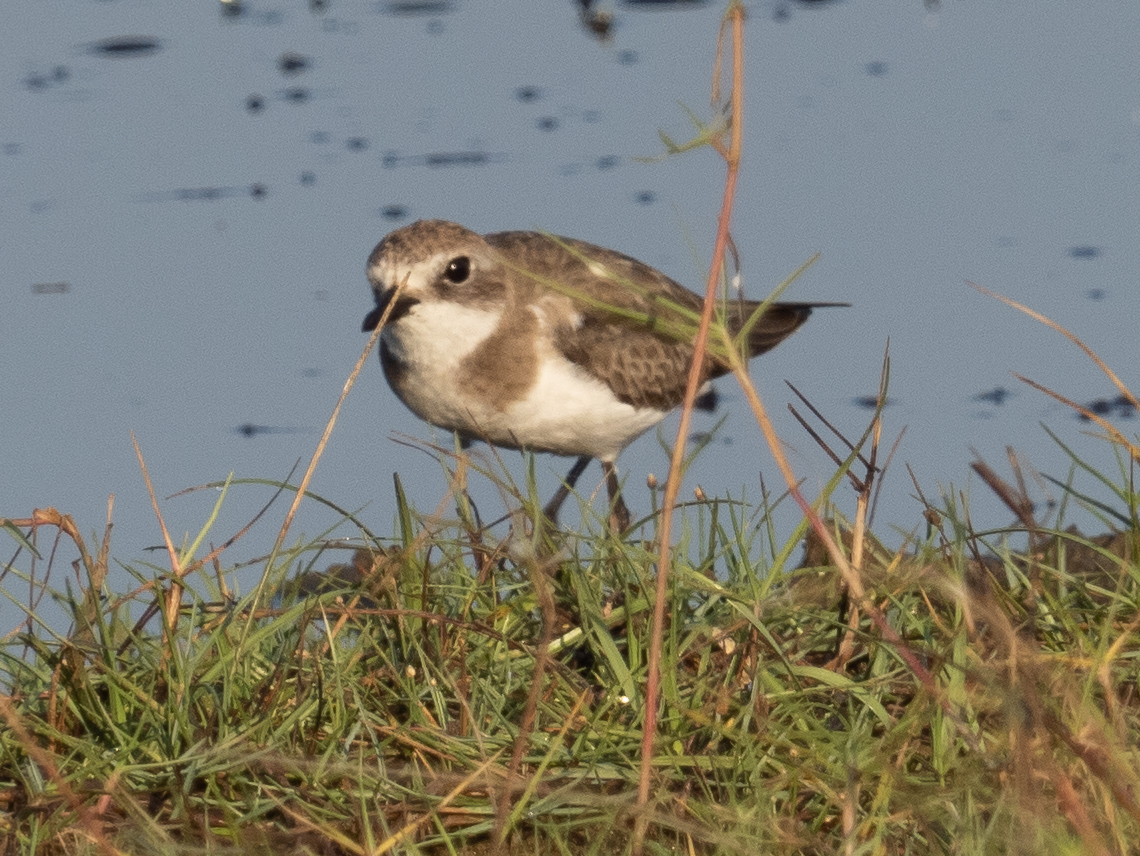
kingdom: Animalia
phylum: Chordata
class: Aves
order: Charadriiformes
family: Charadriidae
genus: Anarhynchus
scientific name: Anarhynchus
